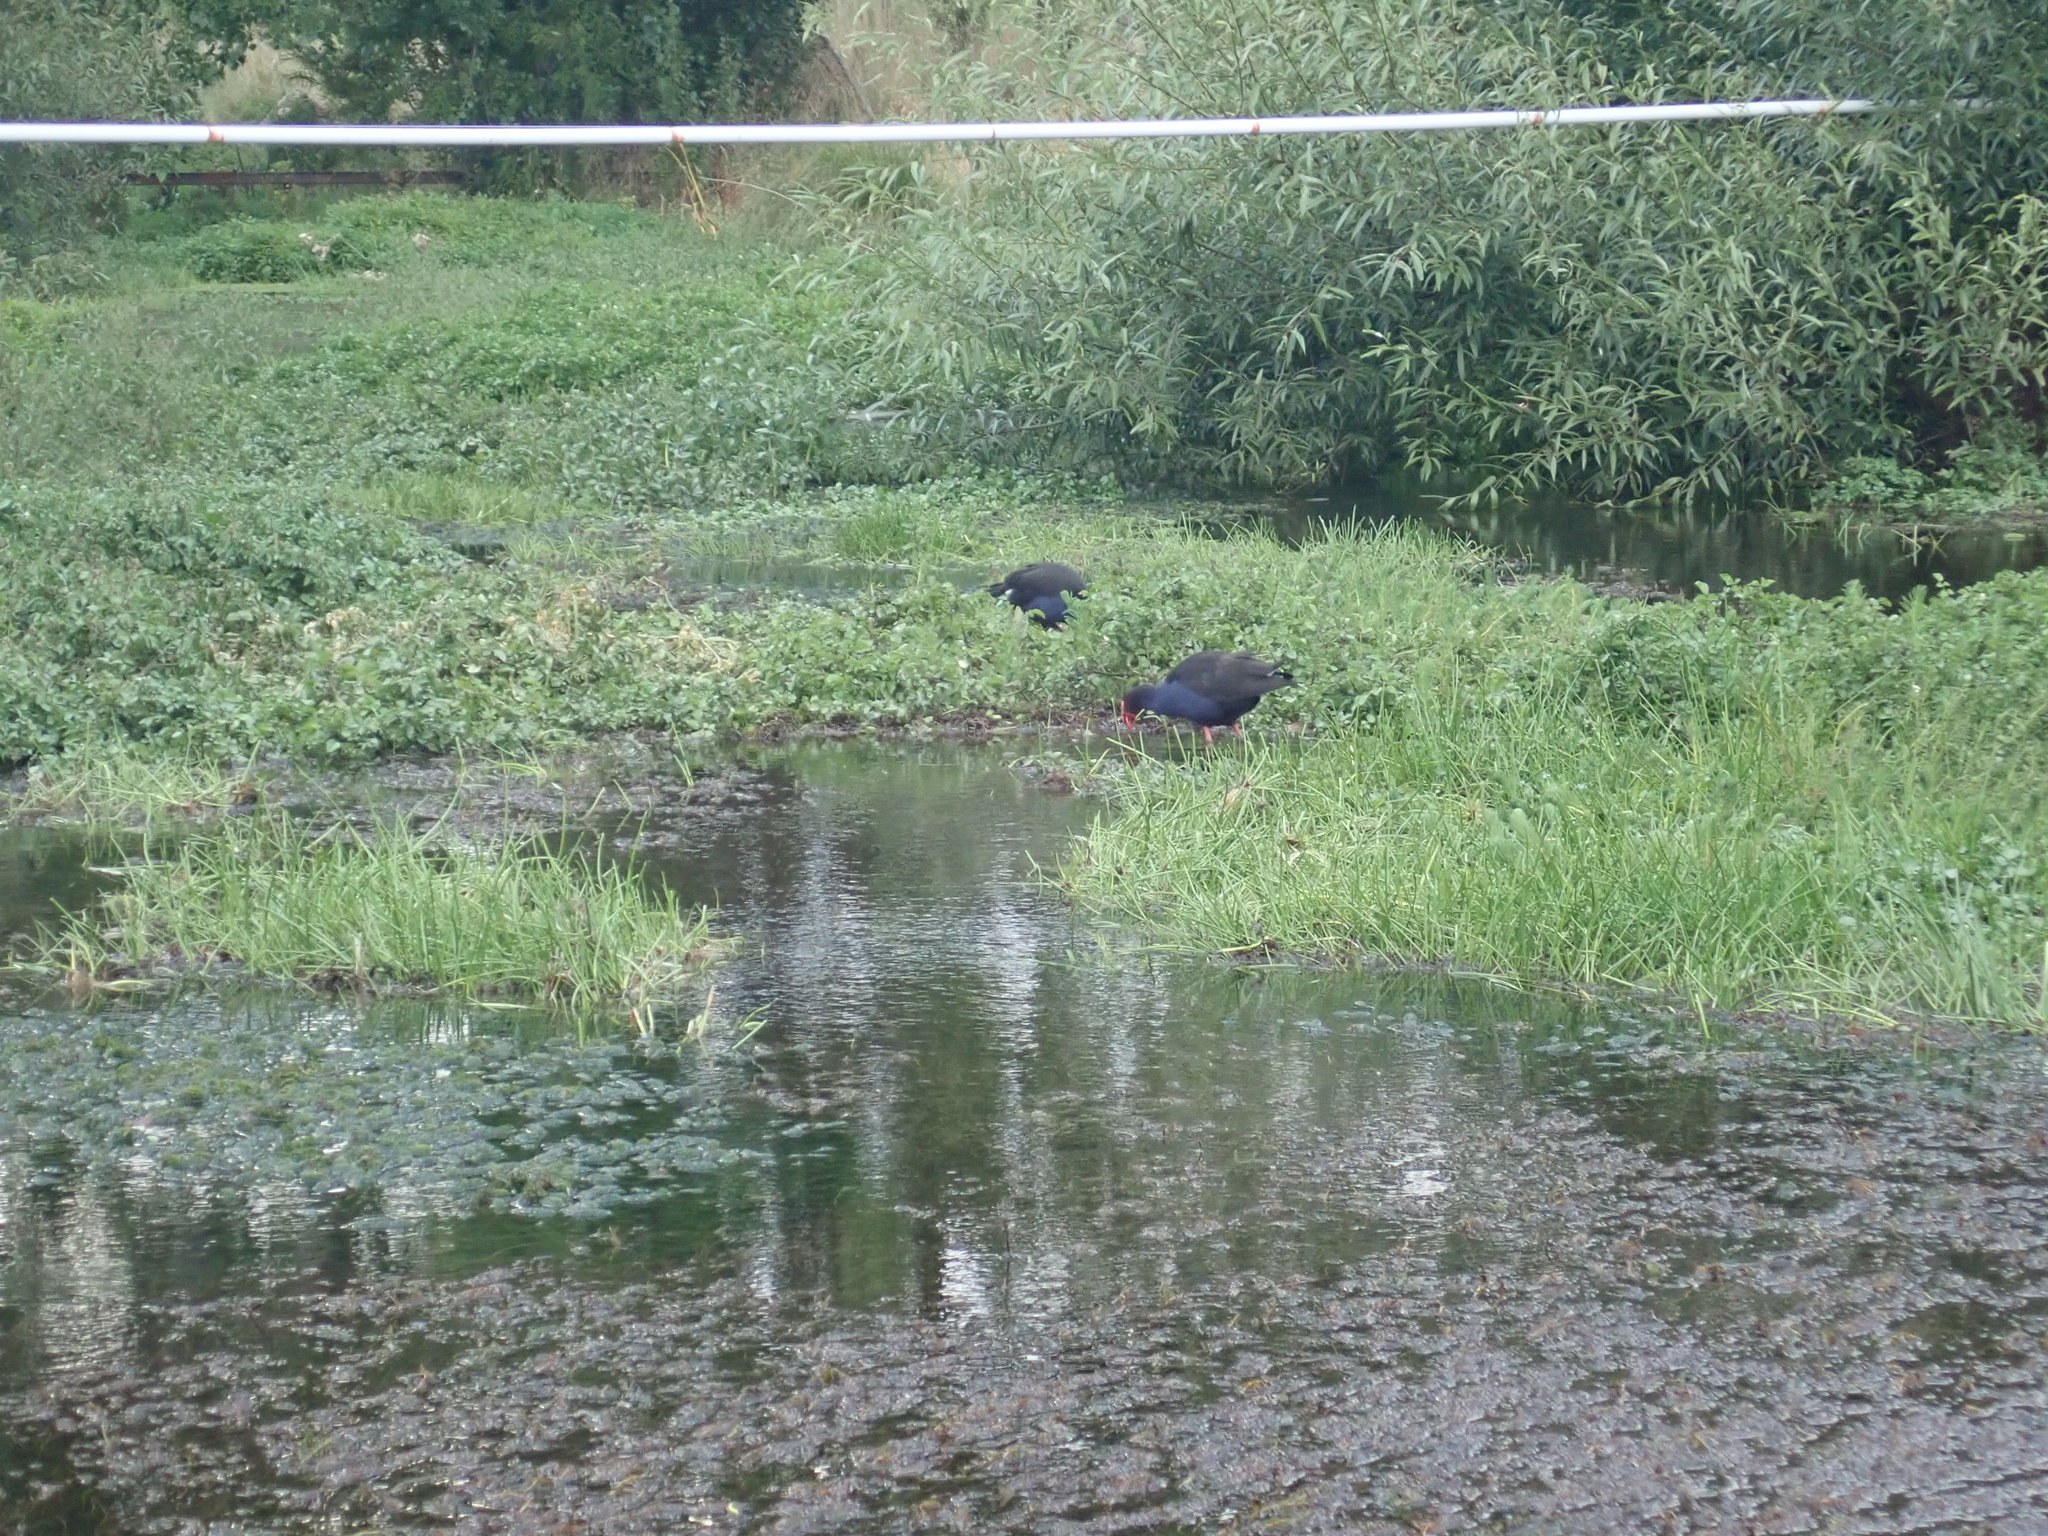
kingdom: Animalia
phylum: Chordata
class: Aves
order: Gruiformes
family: Rallidae
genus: Porphyrio
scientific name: Porphyrio melanotus
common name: Australasian swamphen
